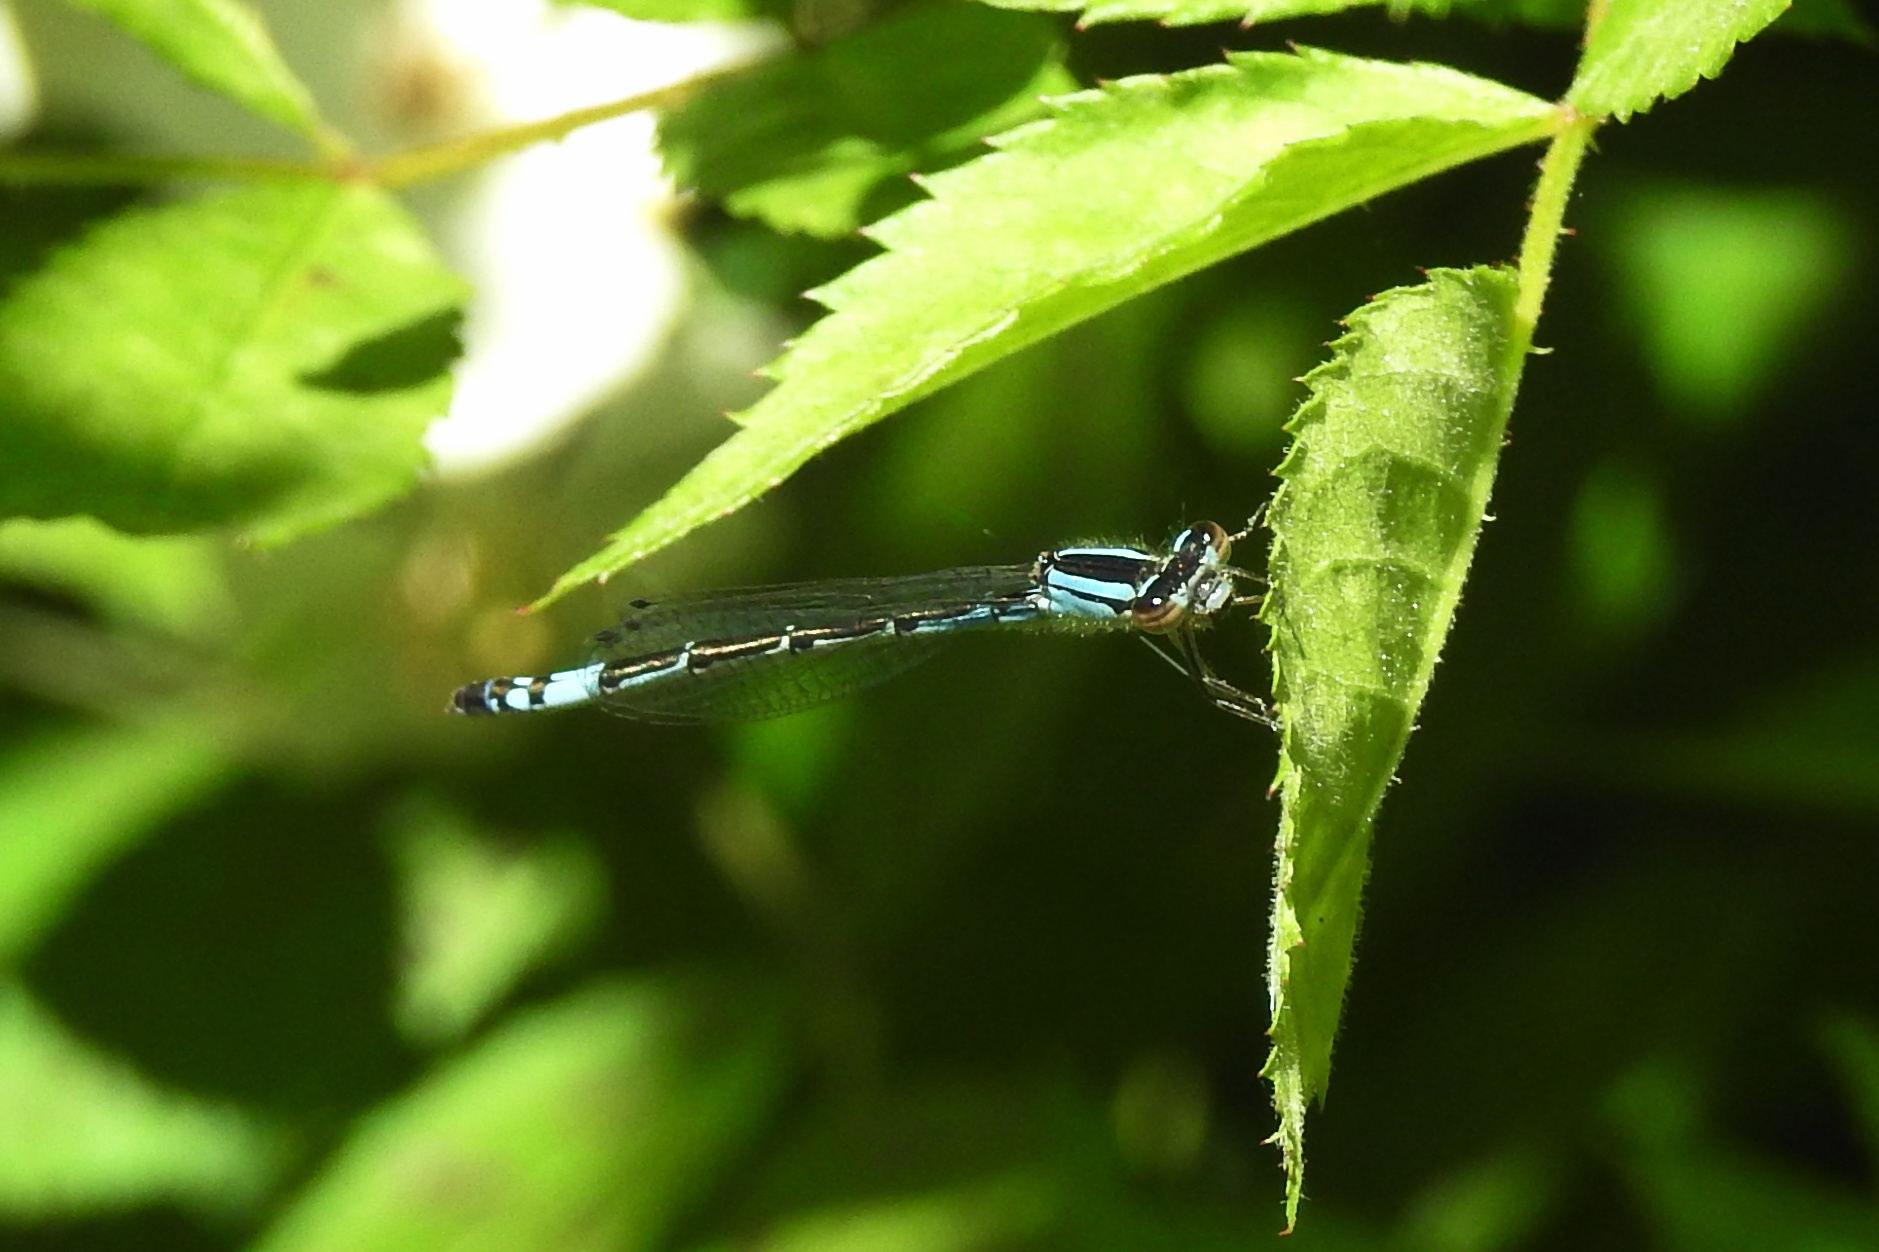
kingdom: Animalia
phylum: Arthropoda
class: Insecta
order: Odonata
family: Coenagrionidae
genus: Enallagma
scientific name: Enallagma aspersum
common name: Azure bluet
